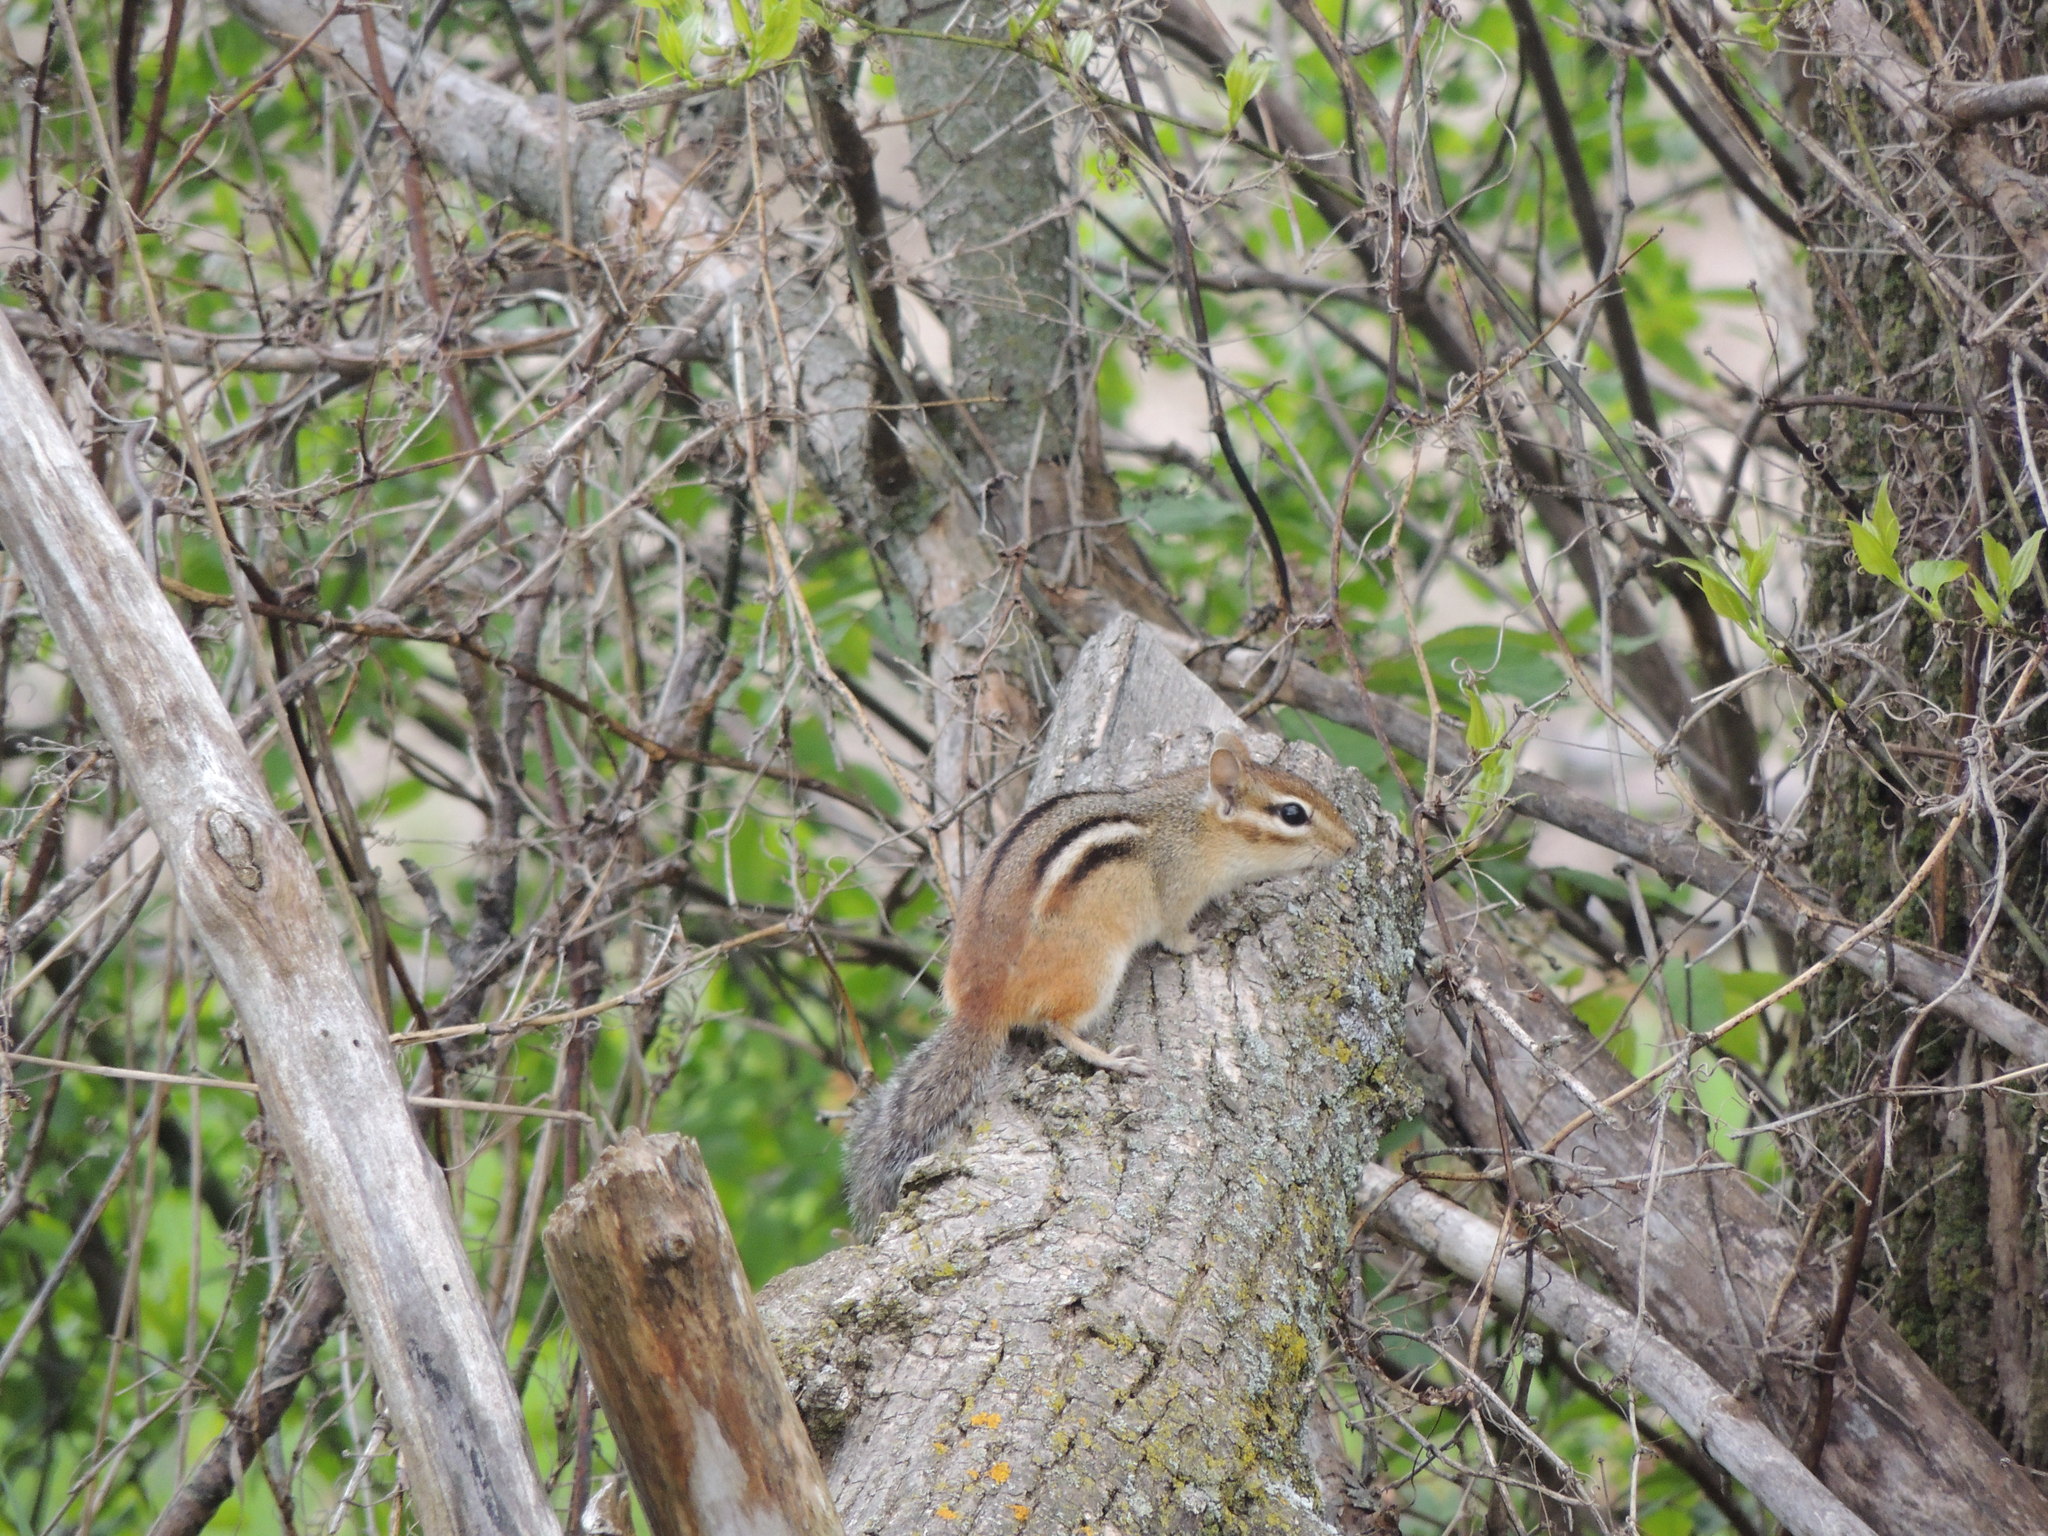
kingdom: Animalia
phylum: Chordata
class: Mammalia
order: Rodentia
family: Sciuridae
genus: Tamias
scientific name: Tamias striatus
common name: Eastern chipmunk
